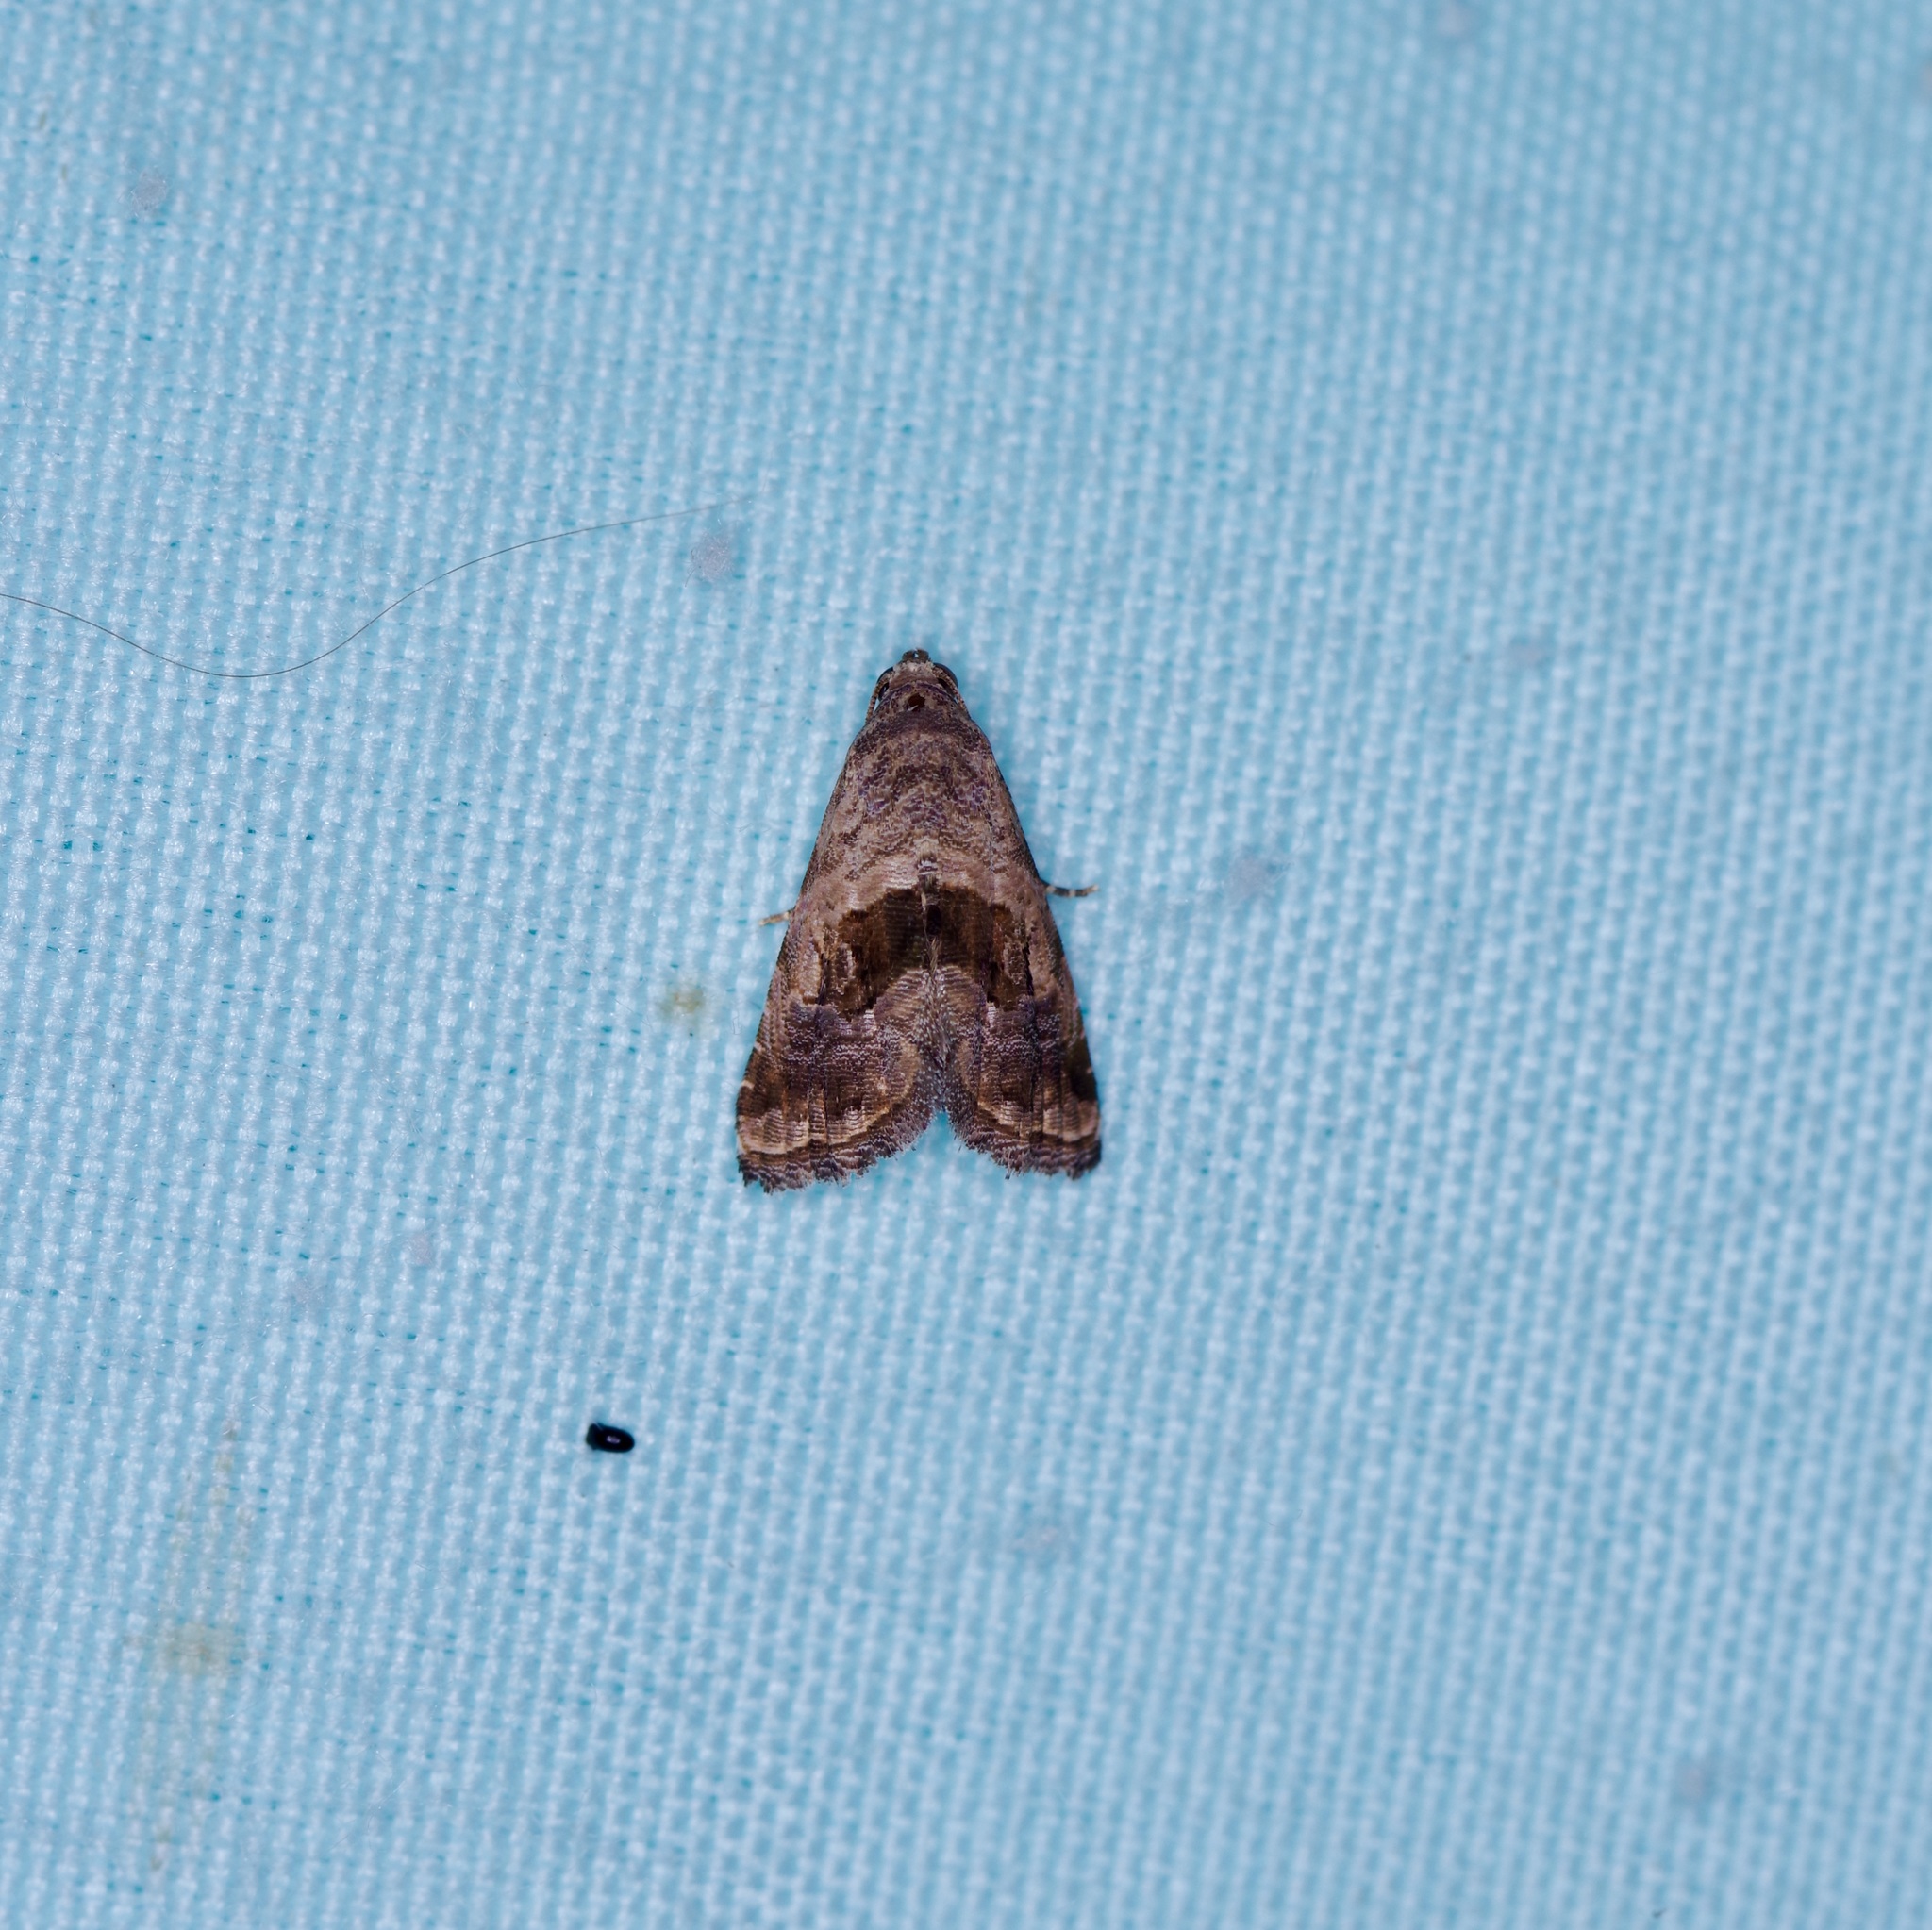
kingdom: Animalia
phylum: Arthropoda
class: Insecta
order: Lepidoptera
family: Noctuidae
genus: Tripudia
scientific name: Tripudia quadrifera
